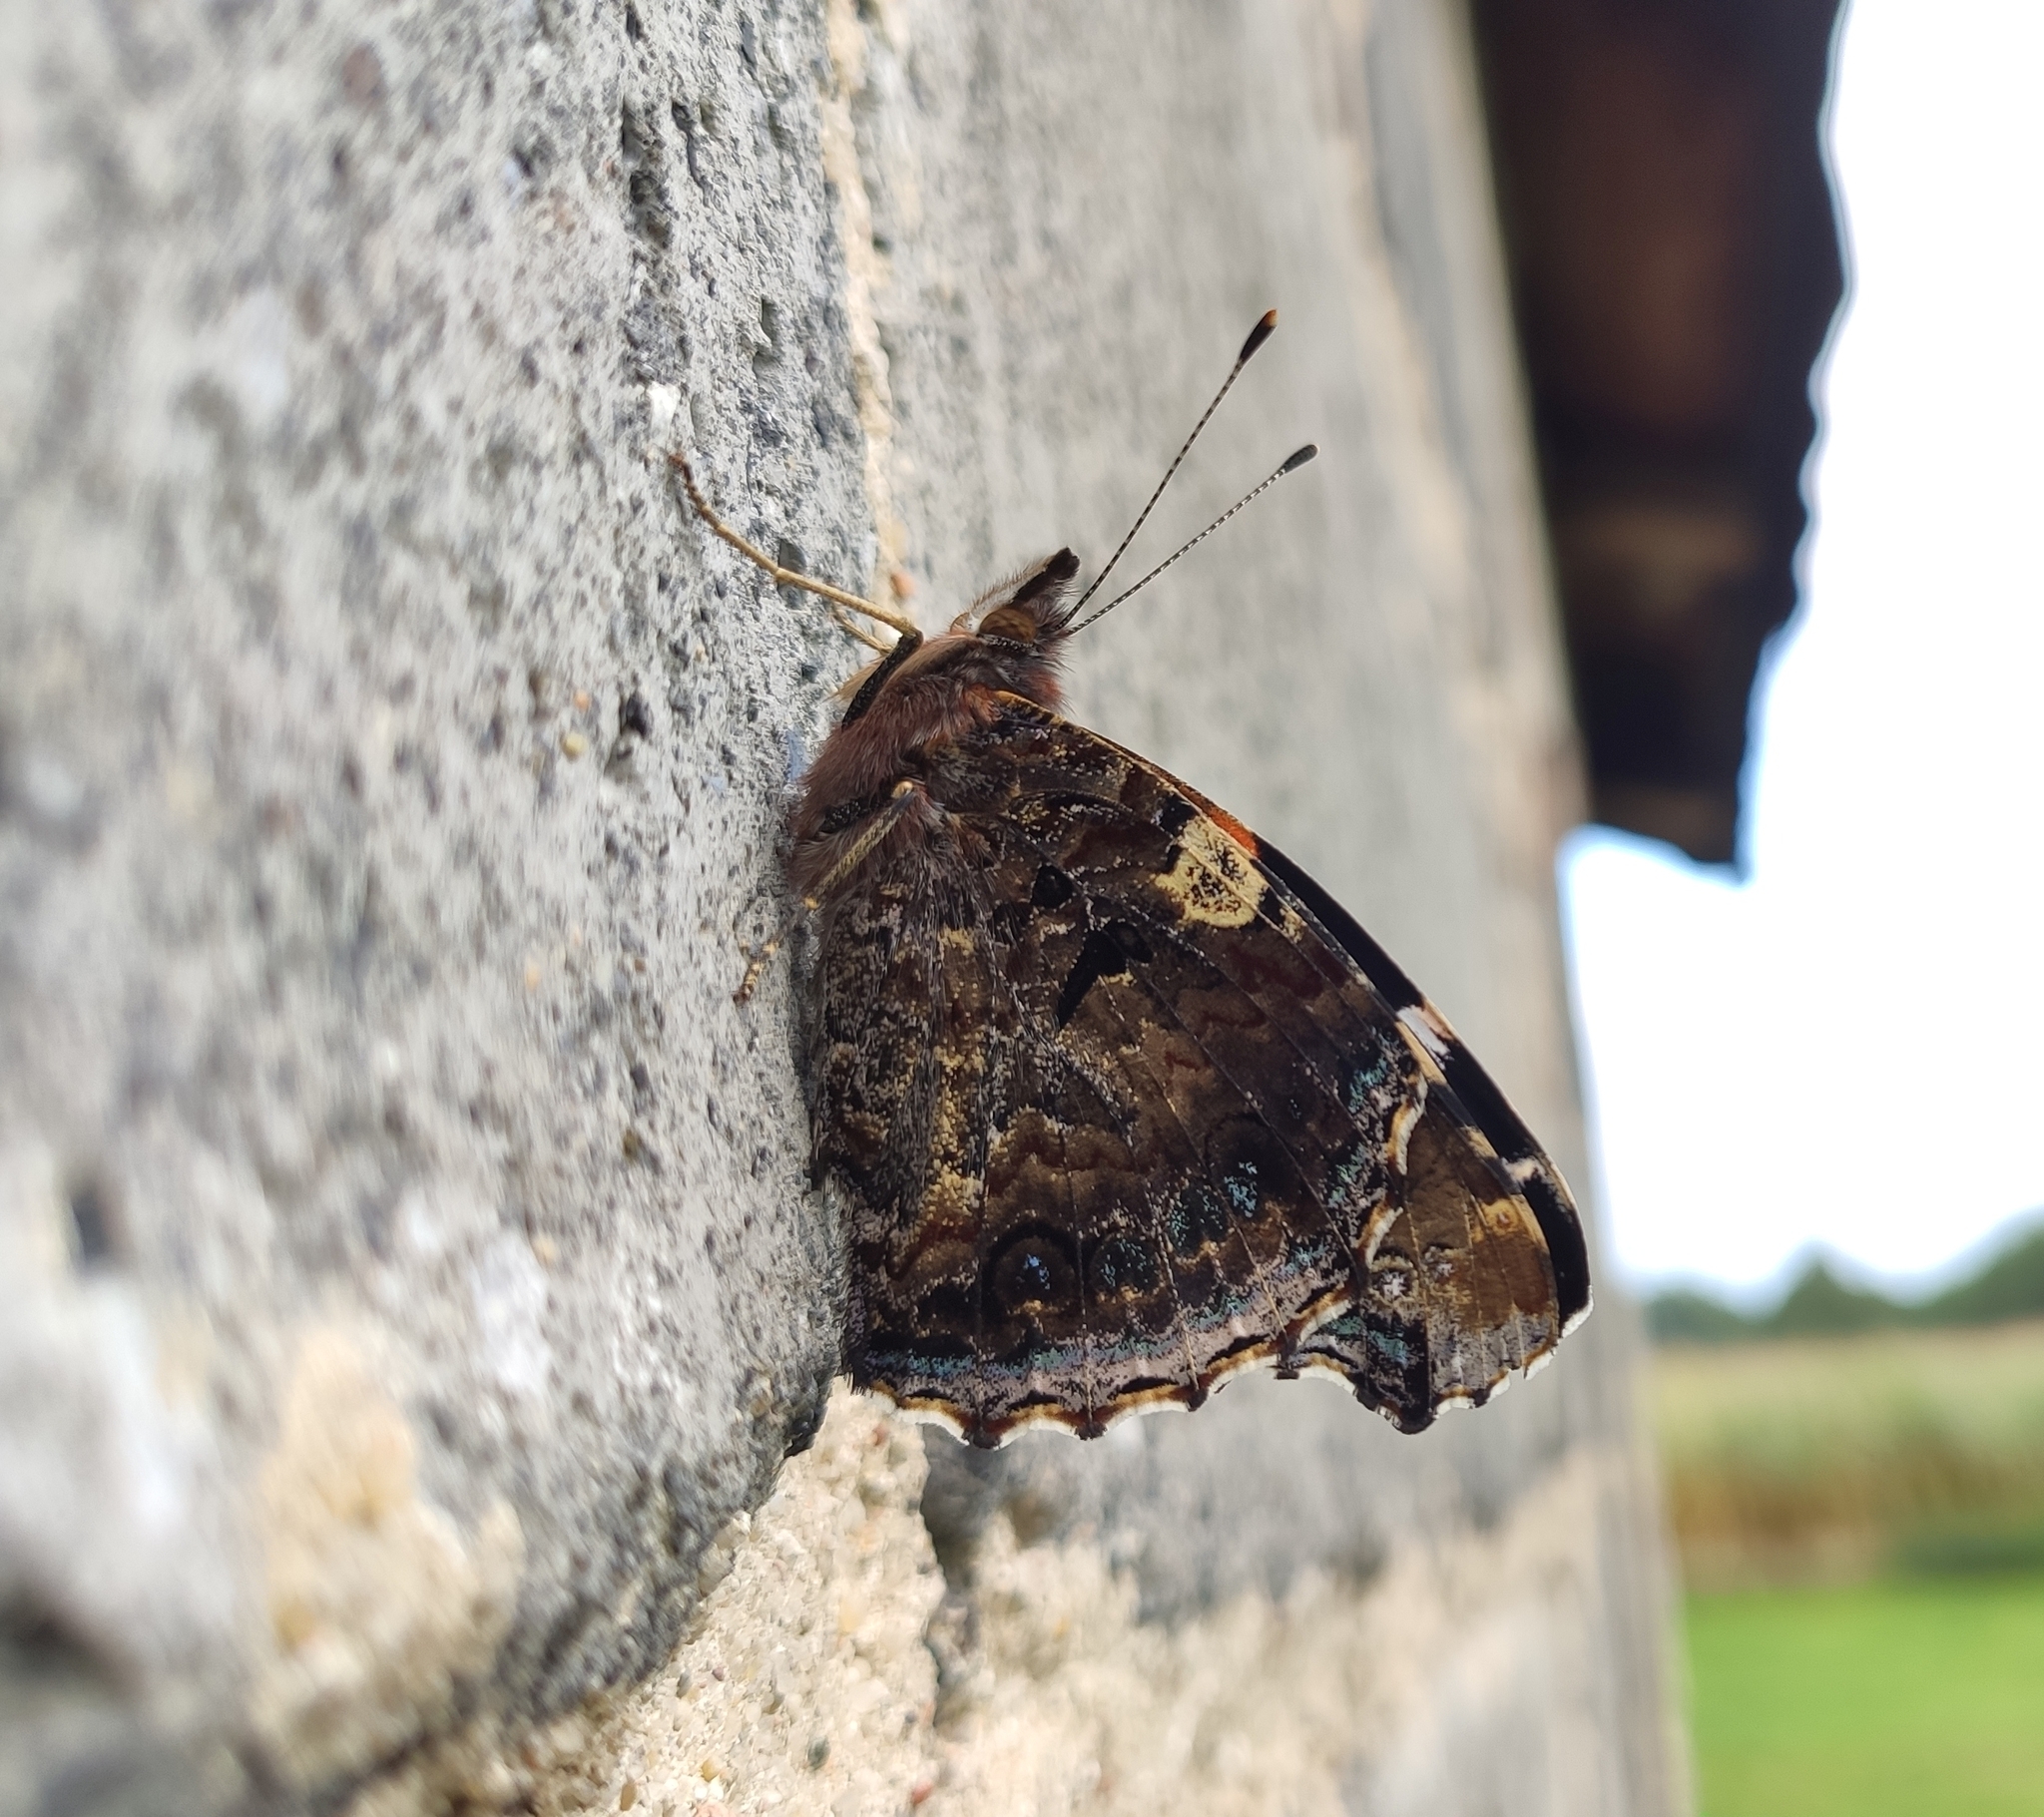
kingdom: Animalia
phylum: Arthropoda
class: Insecta
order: Lepidoptera
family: Nymphalidae
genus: Vanessa
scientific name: Vanessa atalanta
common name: Red admiral
